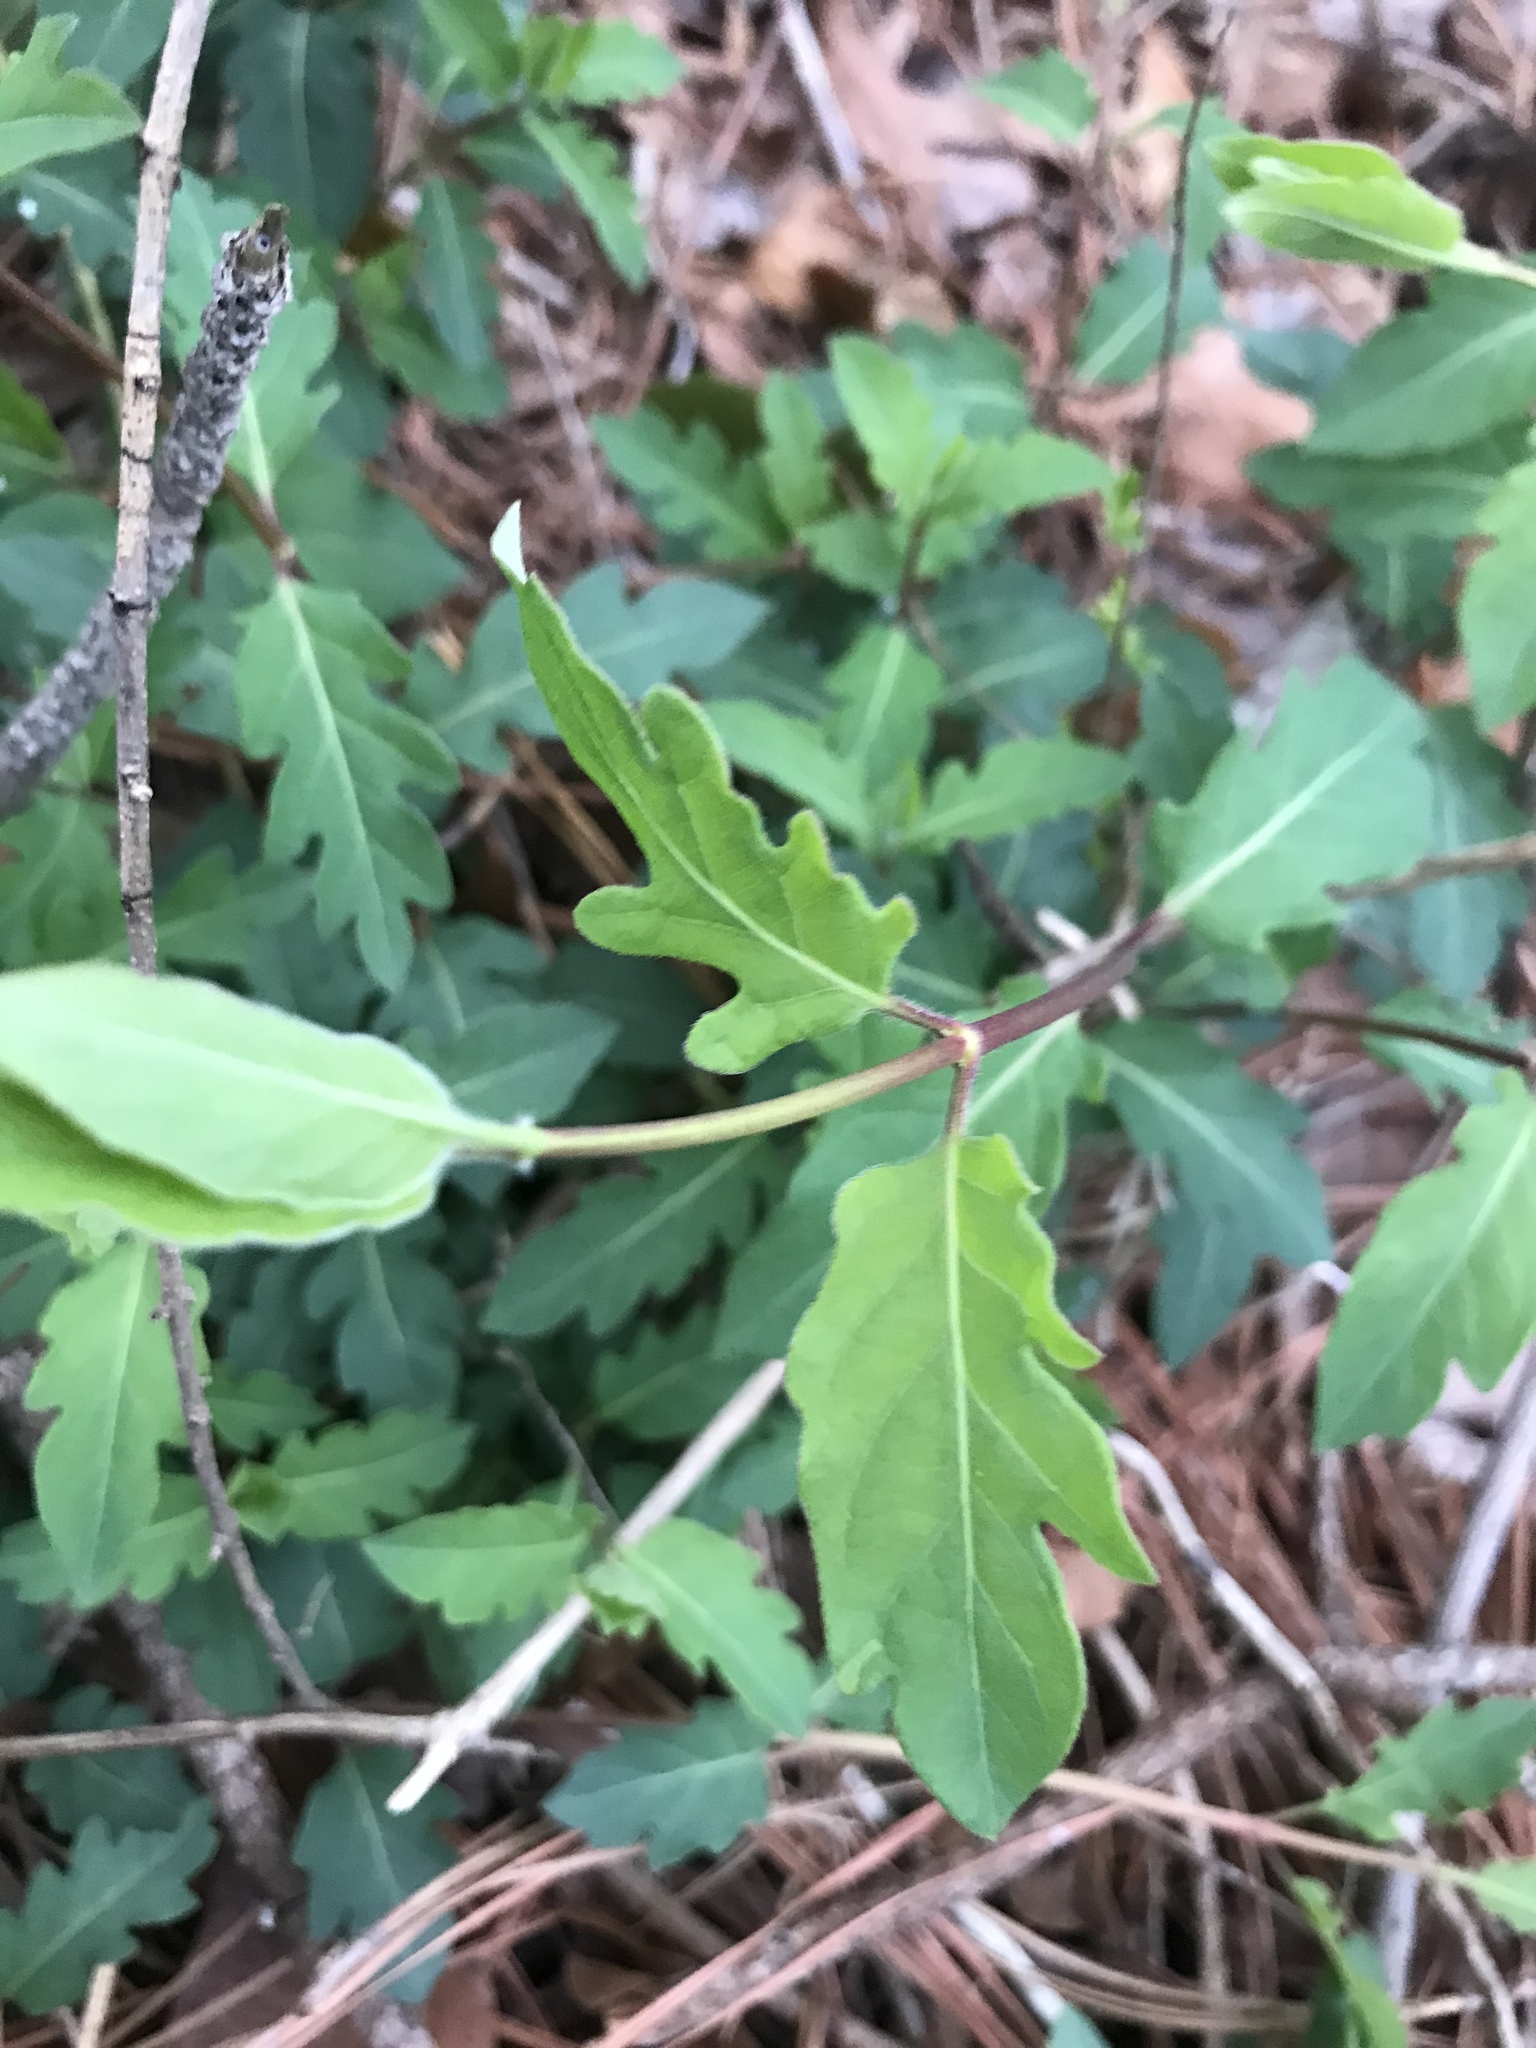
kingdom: Plantae
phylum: Tracheophyta
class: Magnoliopsida
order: Dipsacales
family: Caprifoliaceae
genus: Lonicera
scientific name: Lonicera japonica
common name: Japanese honeysuckle
